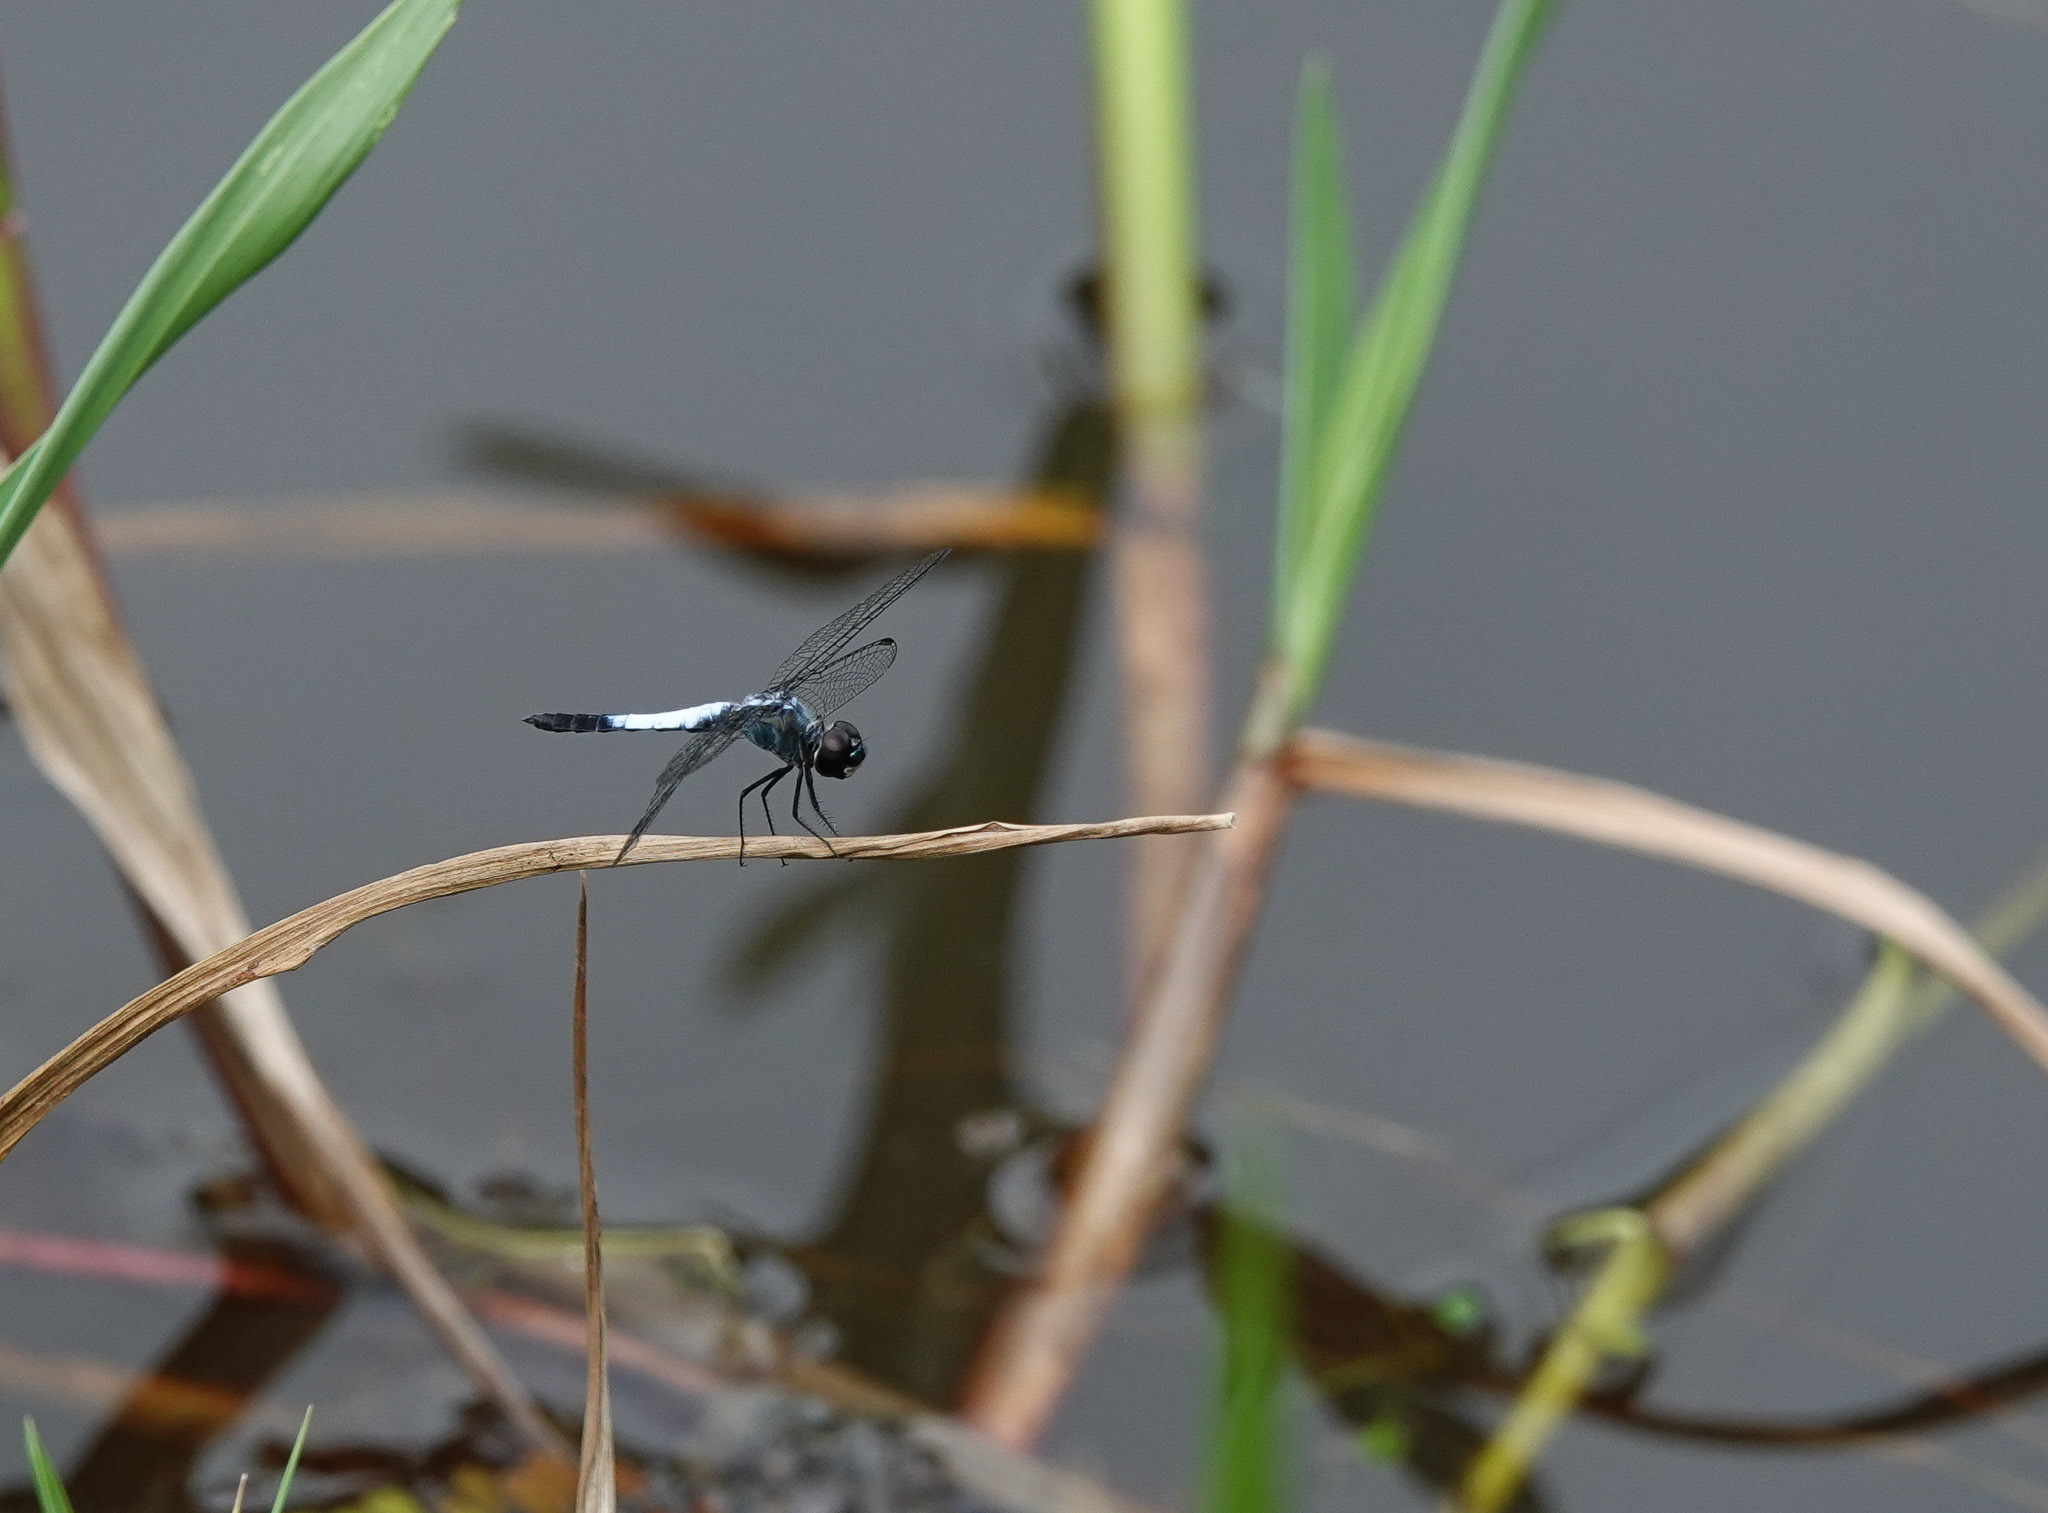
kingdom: Animalia
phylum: Arthropoda
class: Insecta
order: Odonata
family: Libellulidae
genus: Brachydiplax
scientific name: Brachydiplax farinosa
